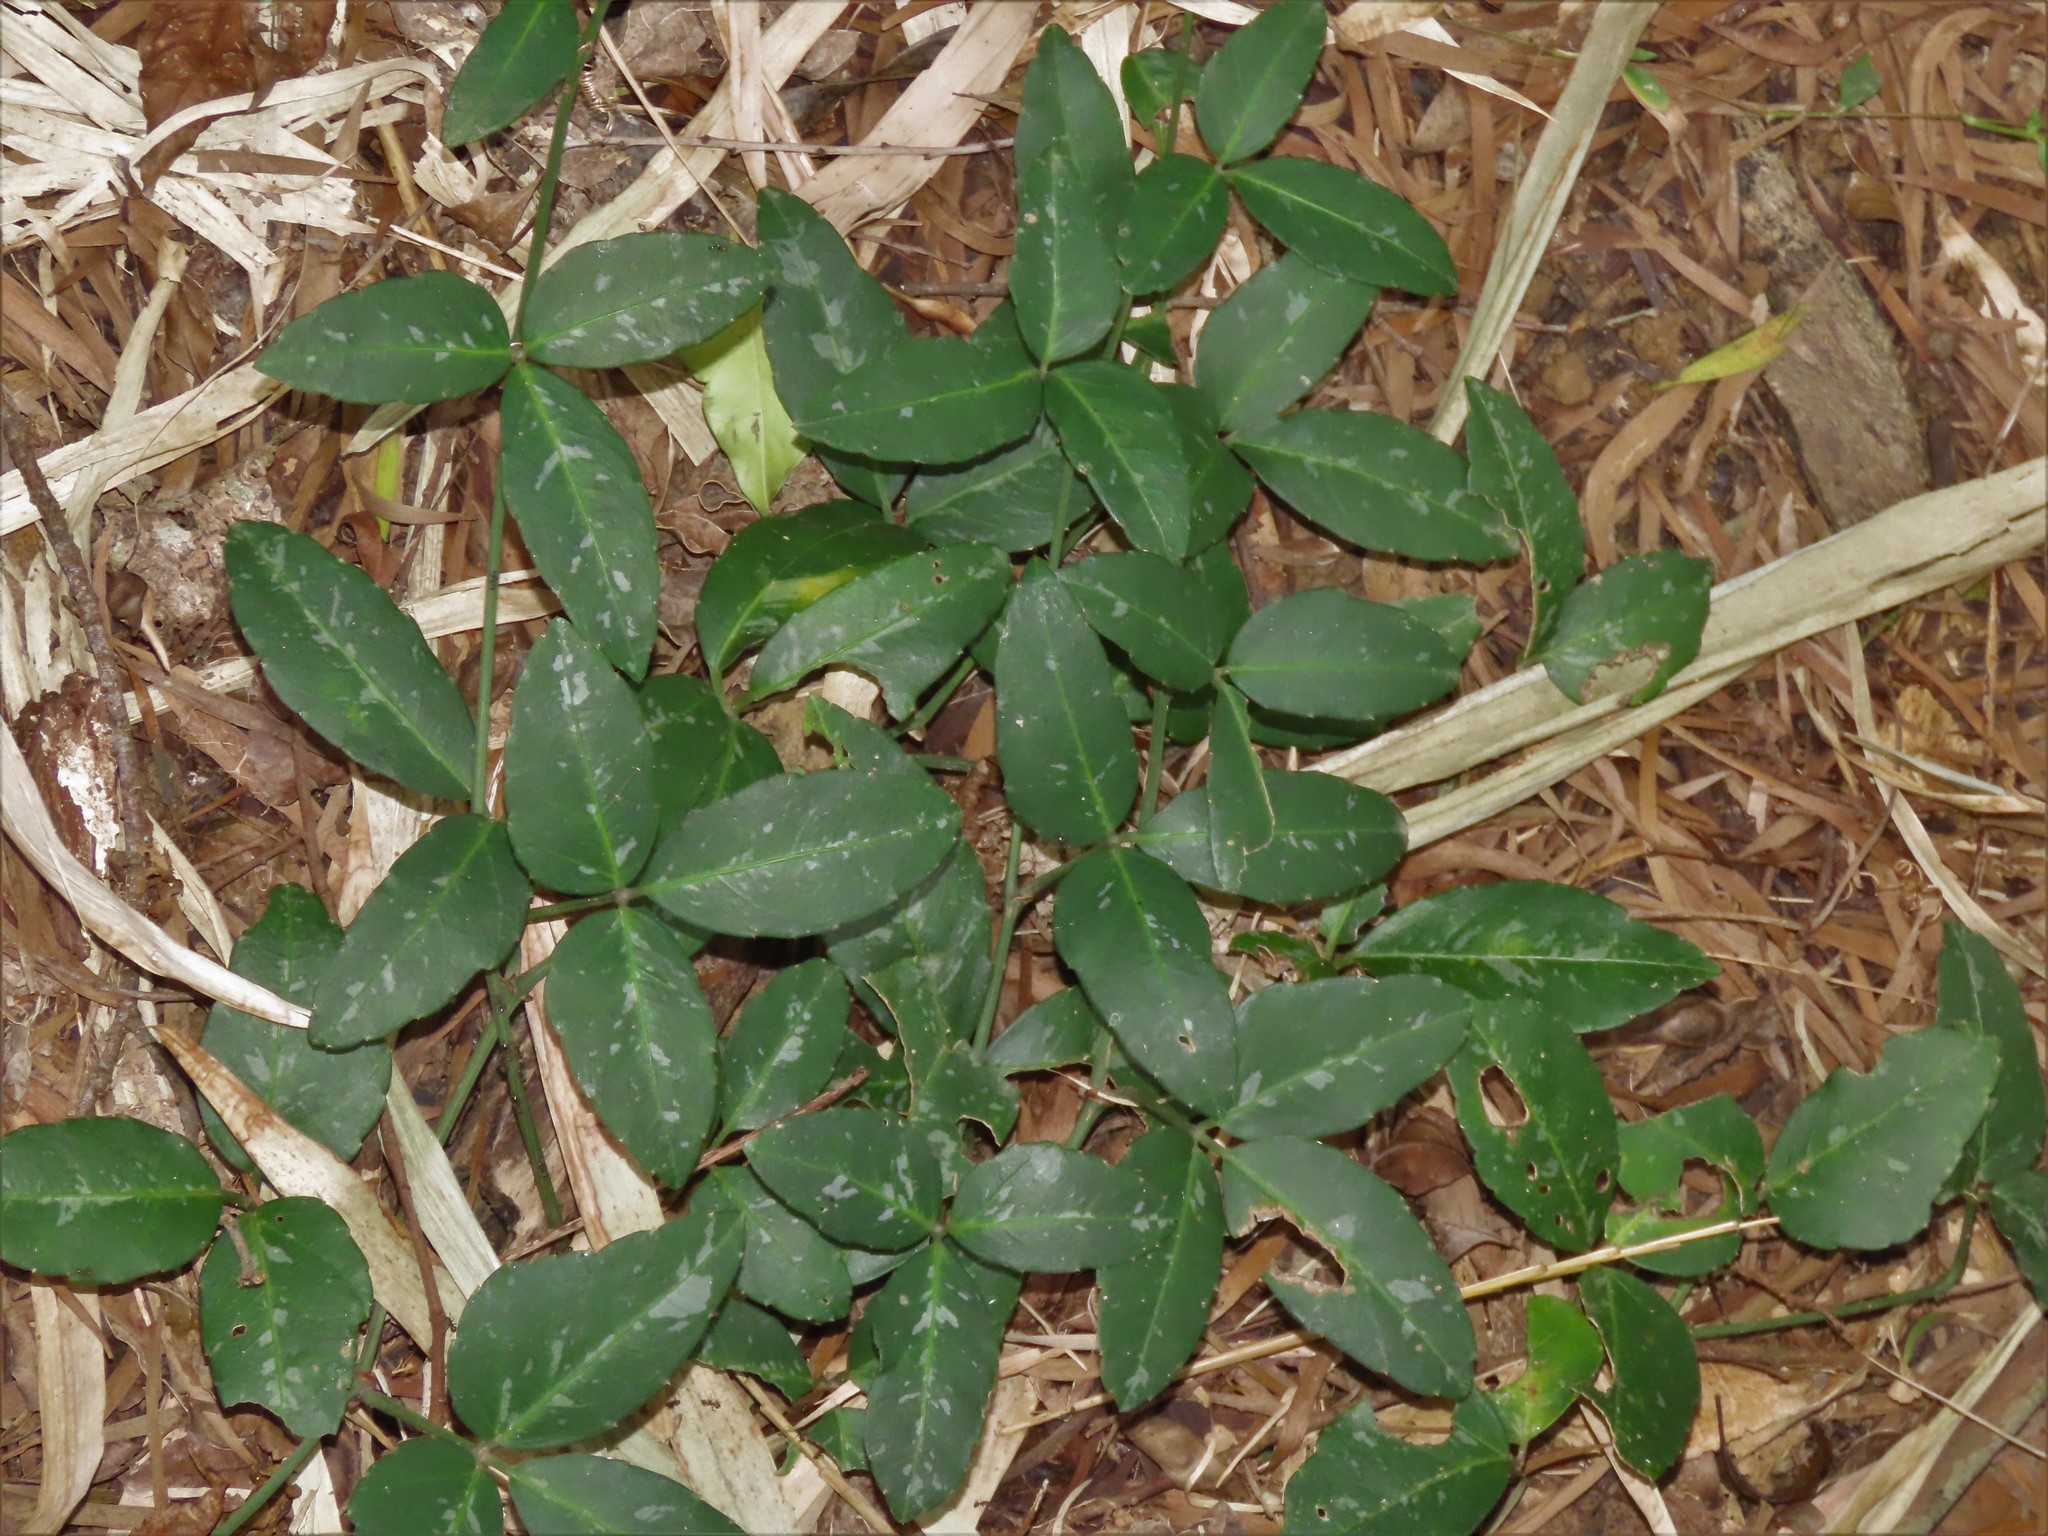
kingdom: Plantae
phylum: Tracheophyta
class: Magnoliopsida
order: Vitales
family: Vitaceae
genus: Tetrastigma
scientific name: Tetrastigma formosanum
